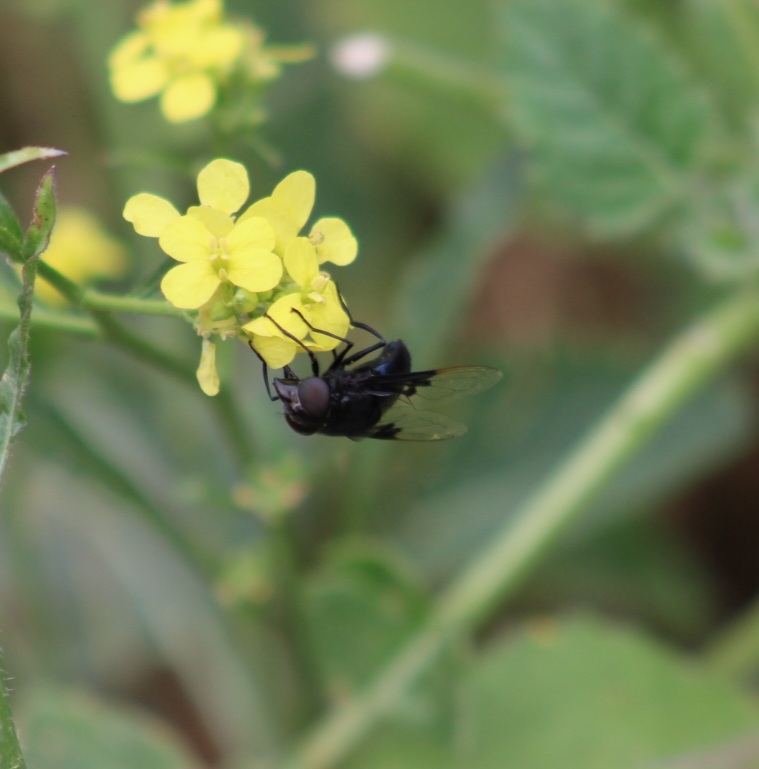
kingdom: Animalia
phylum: Arthropoda
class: Insecta
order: Diptera
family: Syrphidae
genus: Copestylum
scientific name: Copestylum mexicanum
